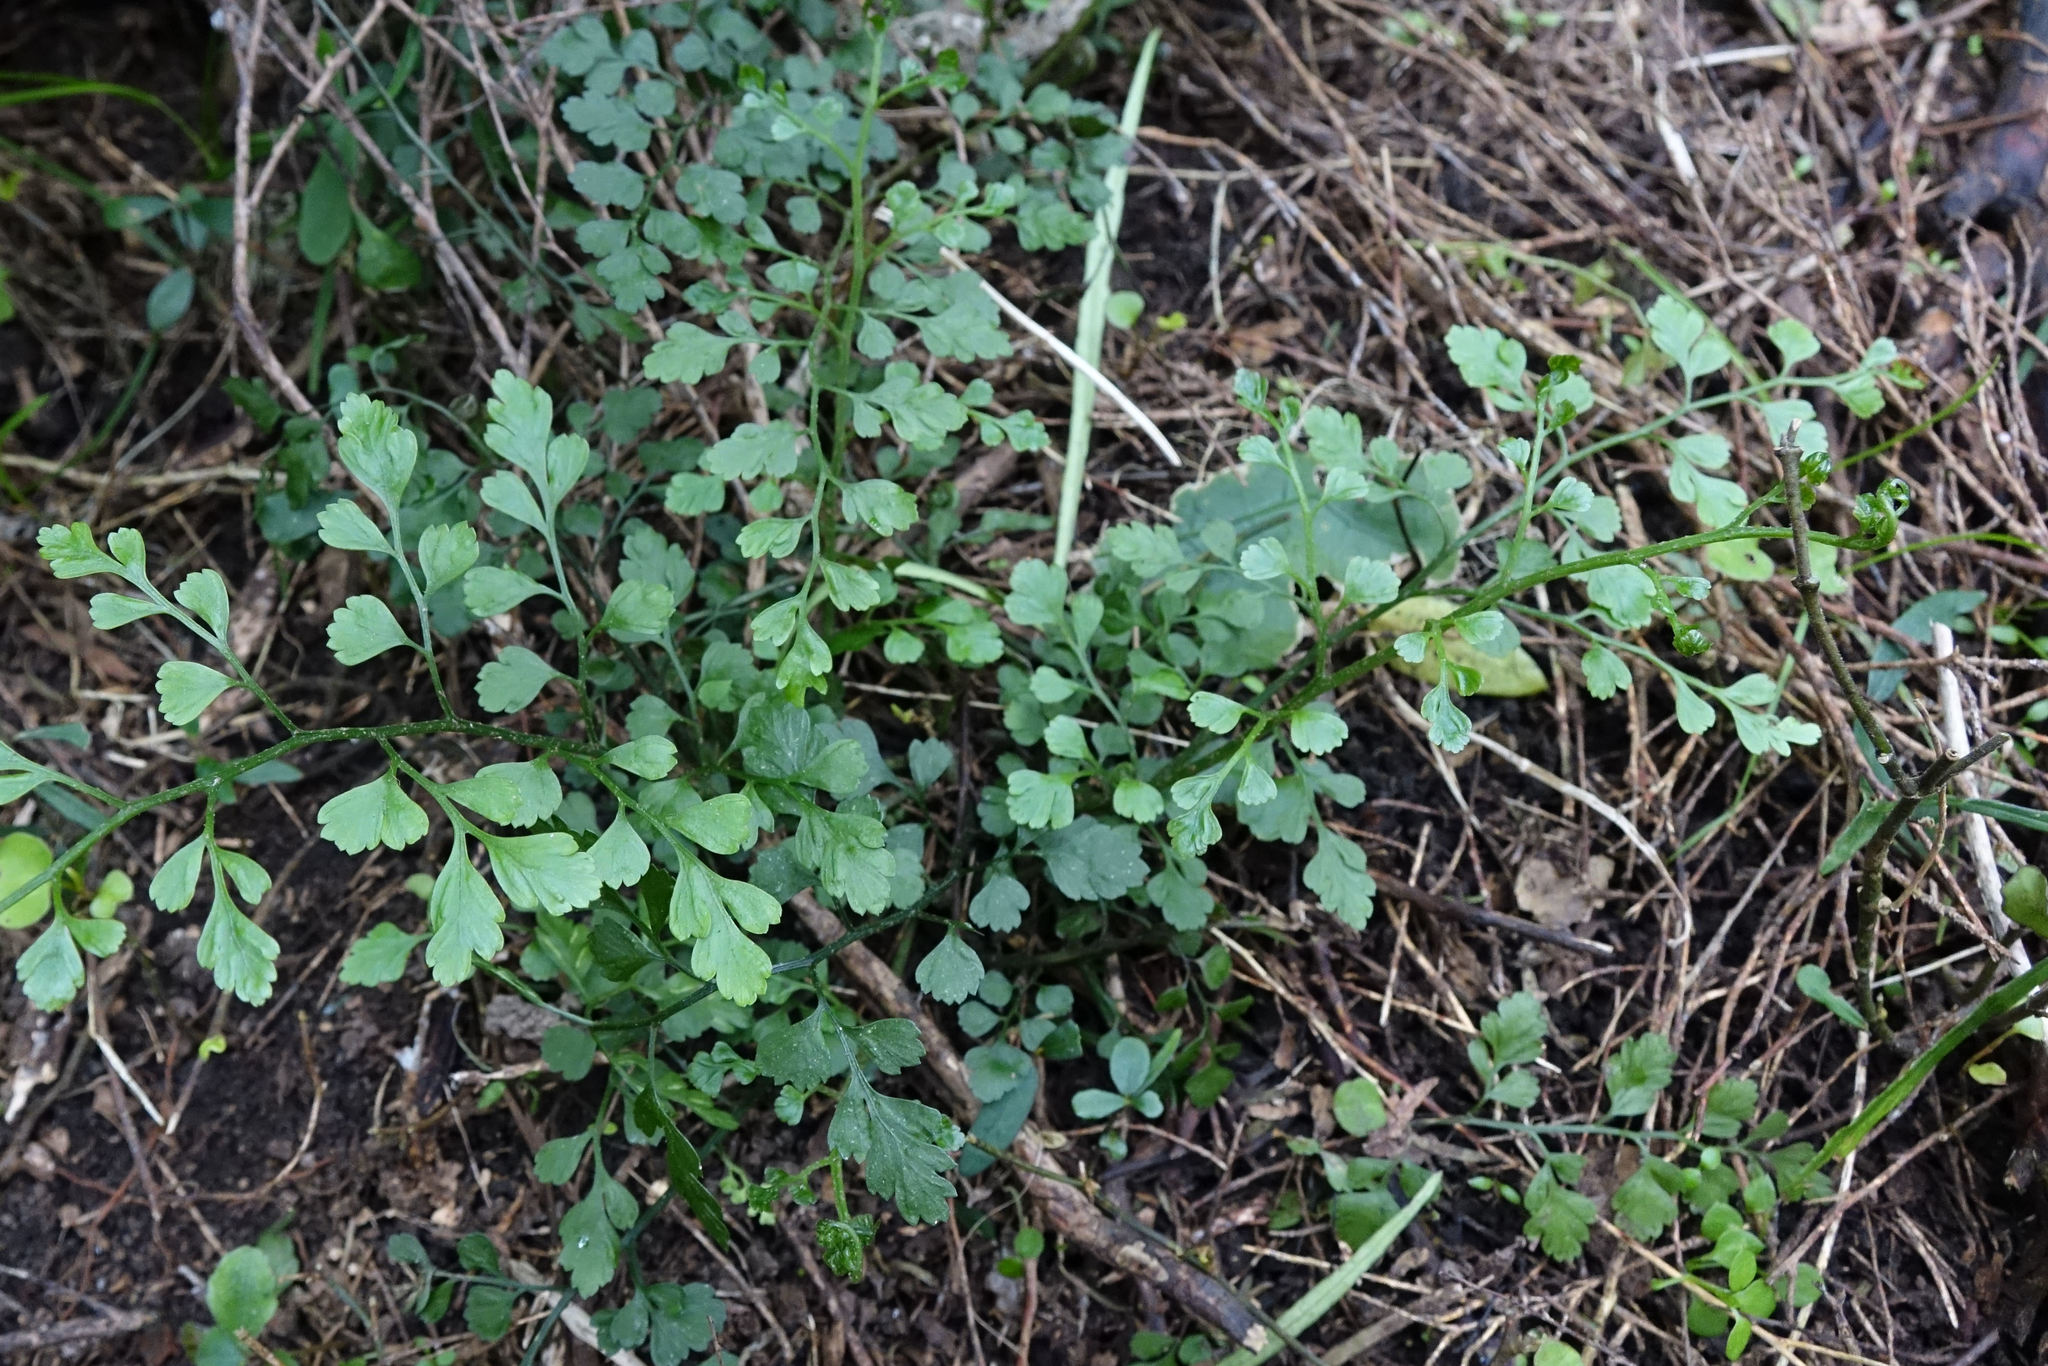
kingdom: Plantae
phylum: Tracheophyta
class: Polypodiopsida
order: Polypodiales
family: Aspleniaceae
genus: Asplenium
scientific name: Asplenium hookerianum
